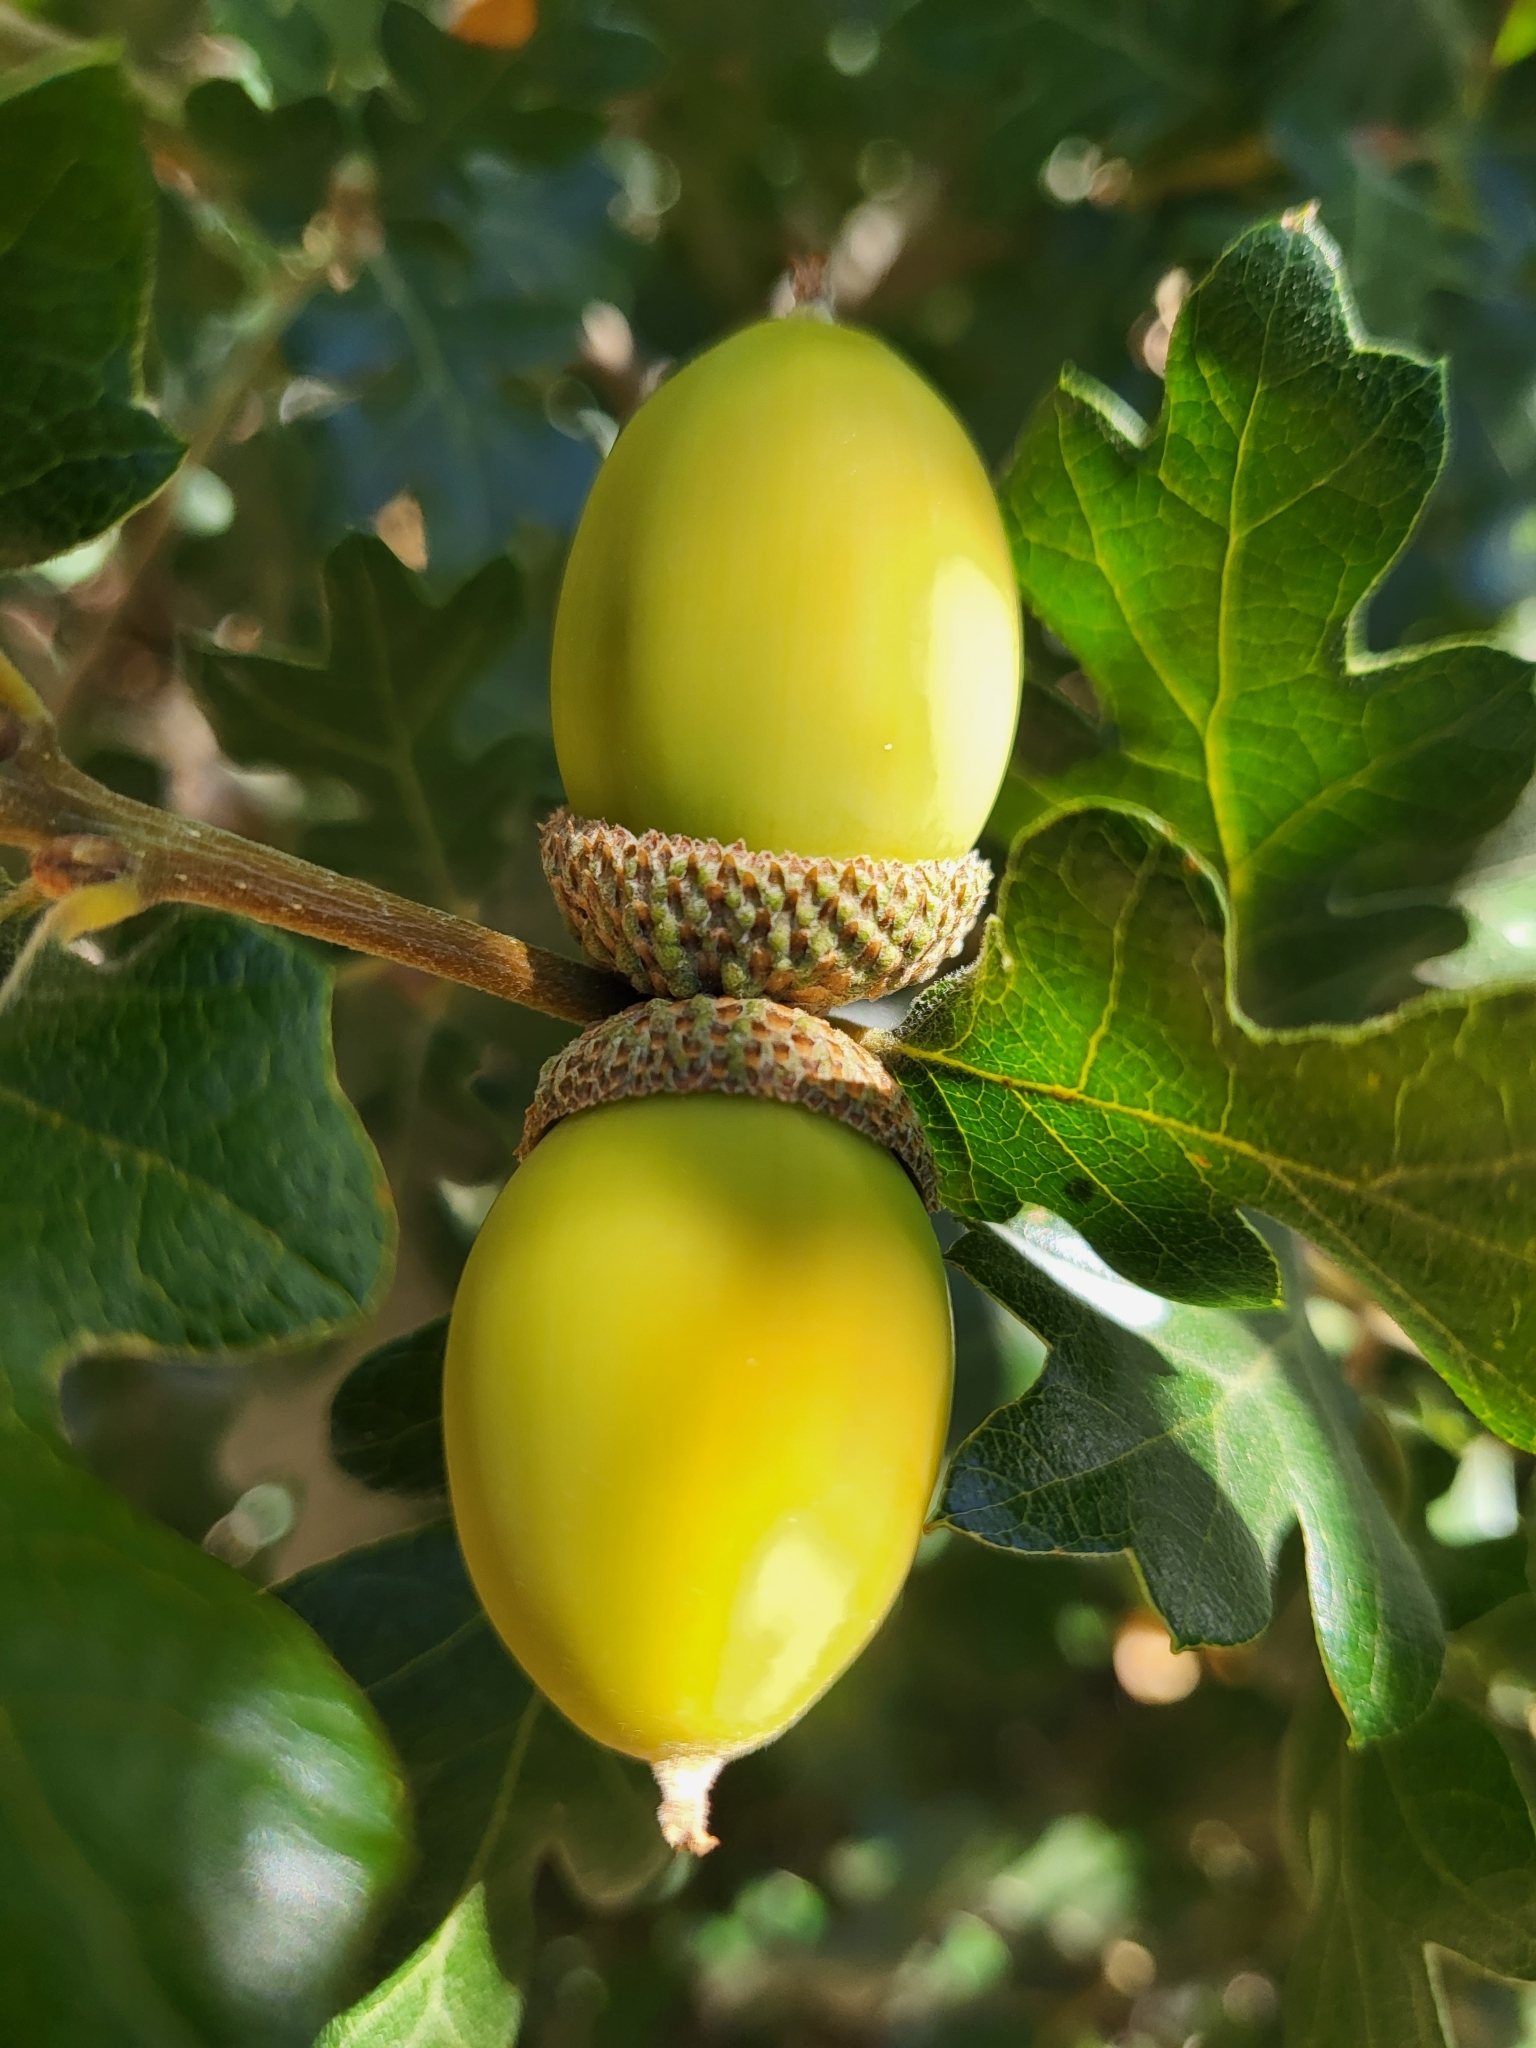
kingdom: Plantae
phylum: Tracheophyta
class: Magnoliopsida
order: Fagales
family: Fagaceae
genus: Quercus
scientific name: Quercus garryana
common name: Garry oak
